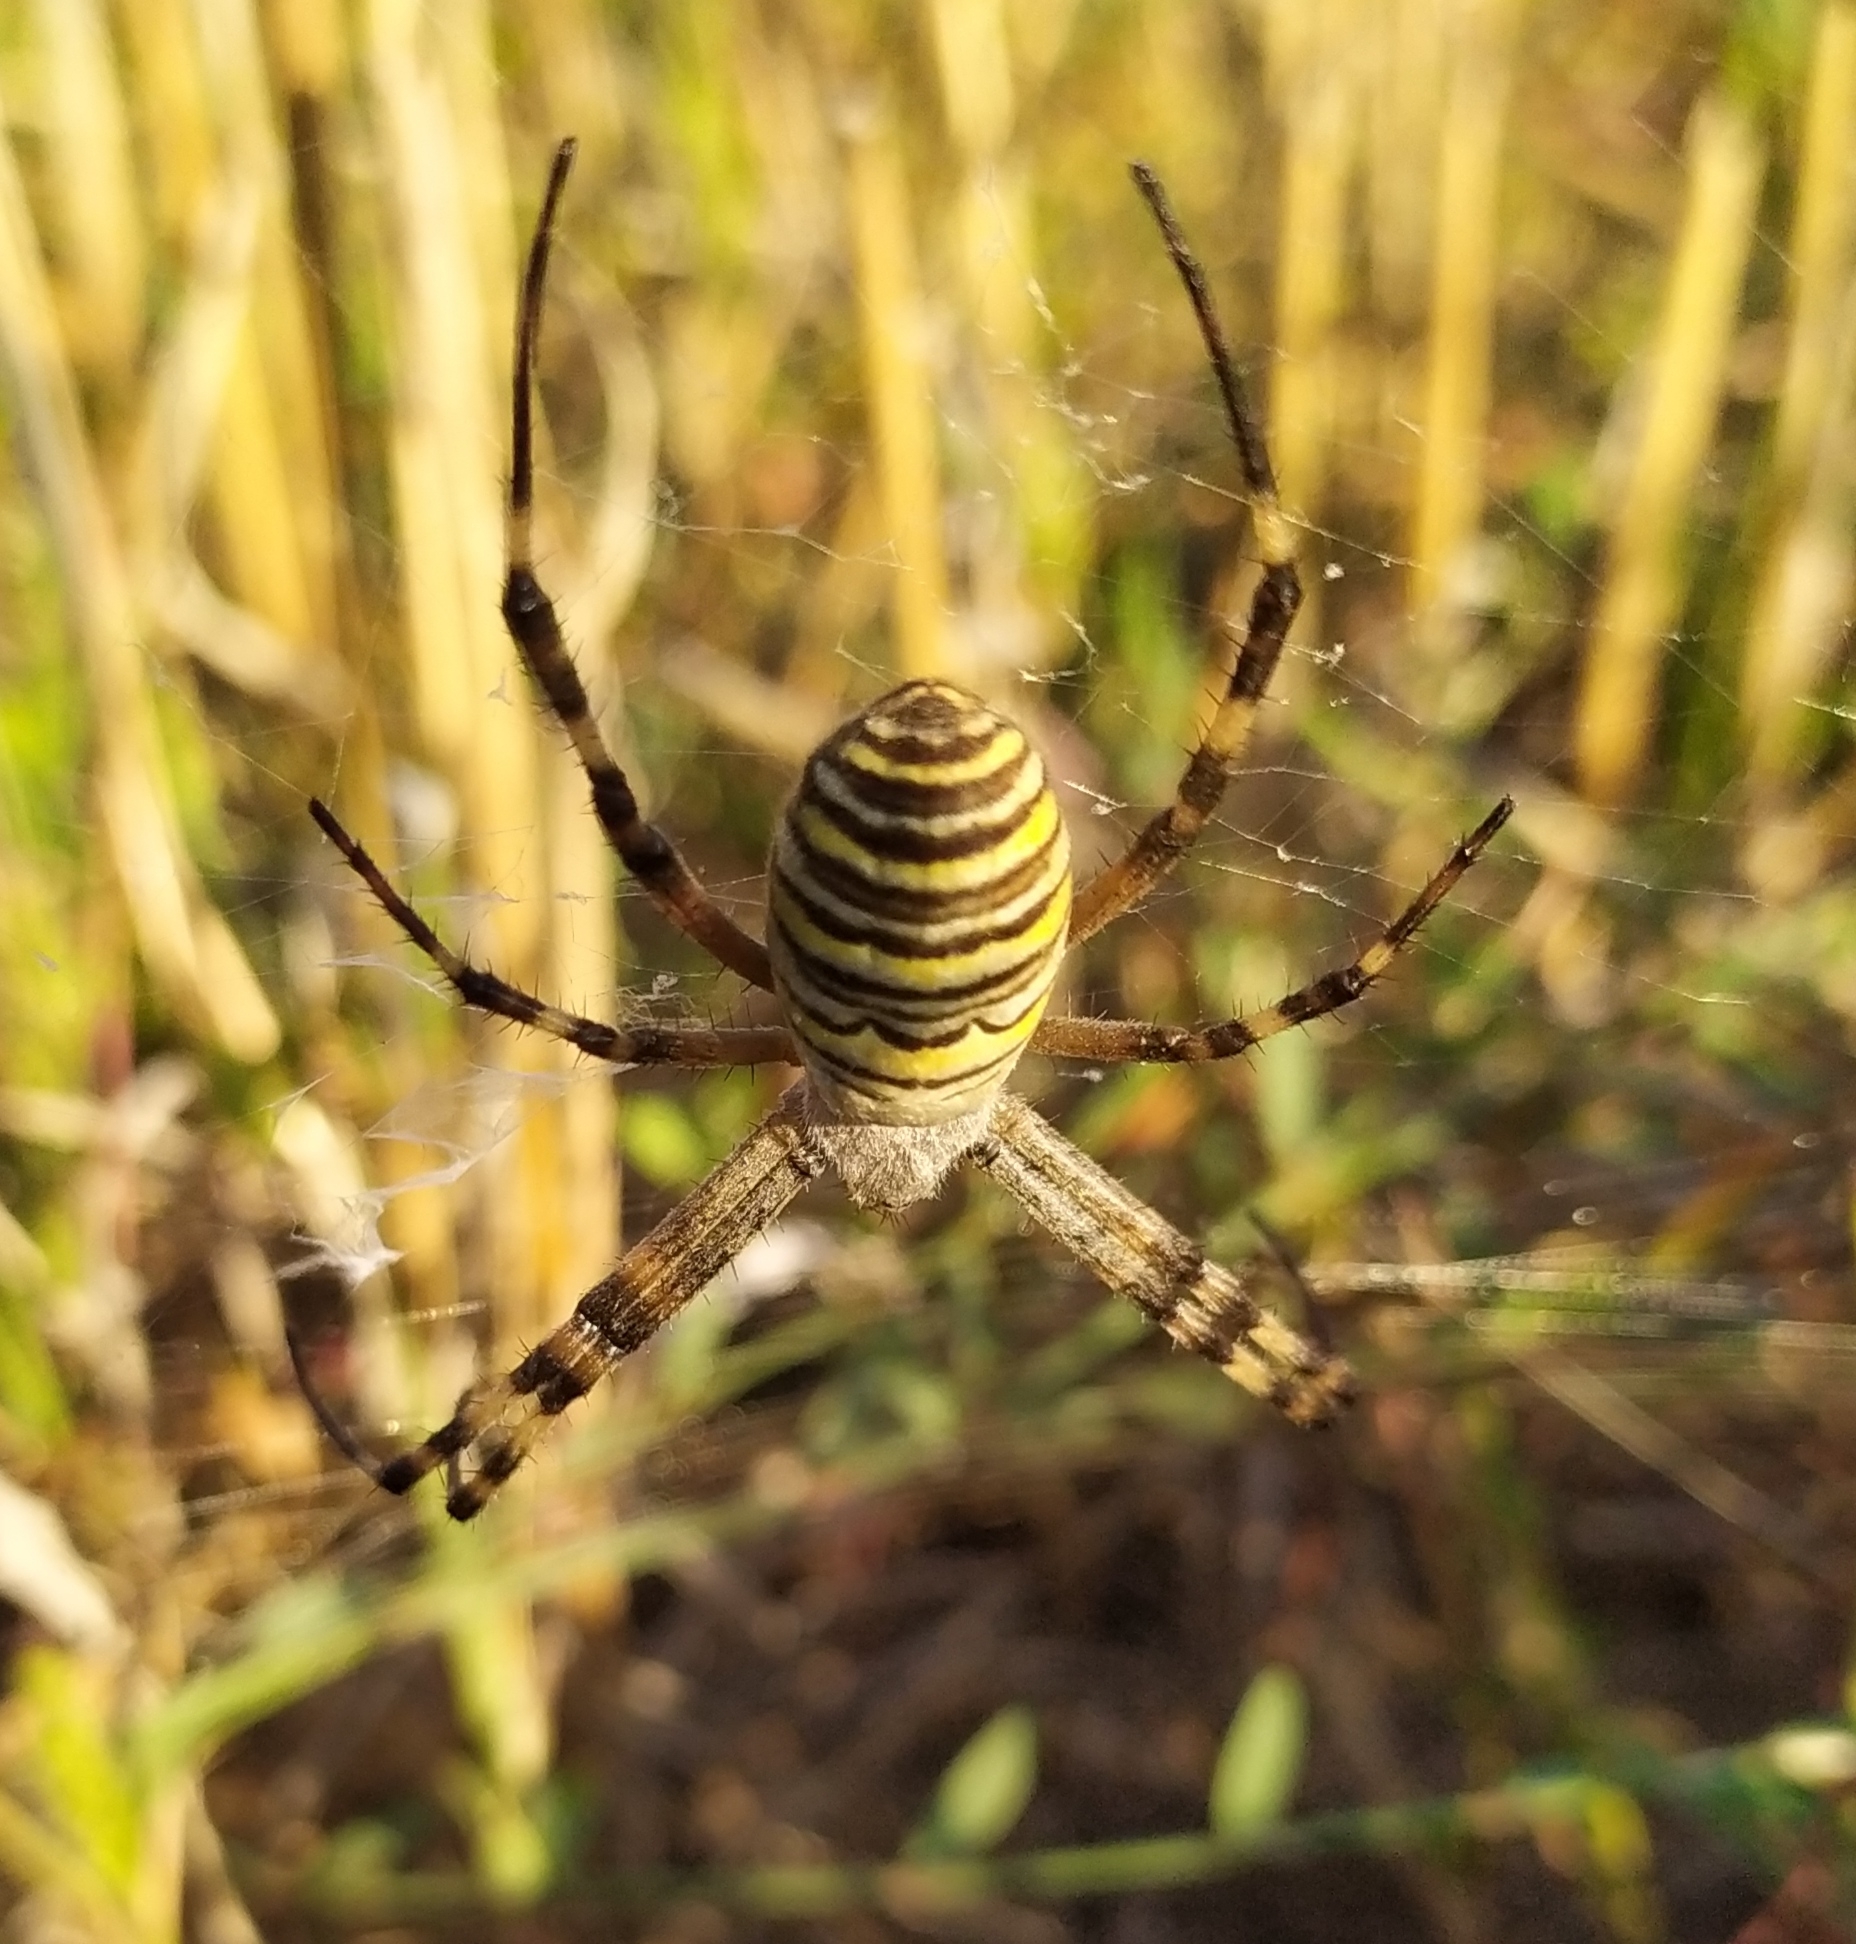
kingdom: Animalia
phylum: Arthropoda
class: Arachnida
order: Araneae
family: Araneidae
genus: Argiope
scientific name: Argiope bruennichi
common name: Wasp spider
